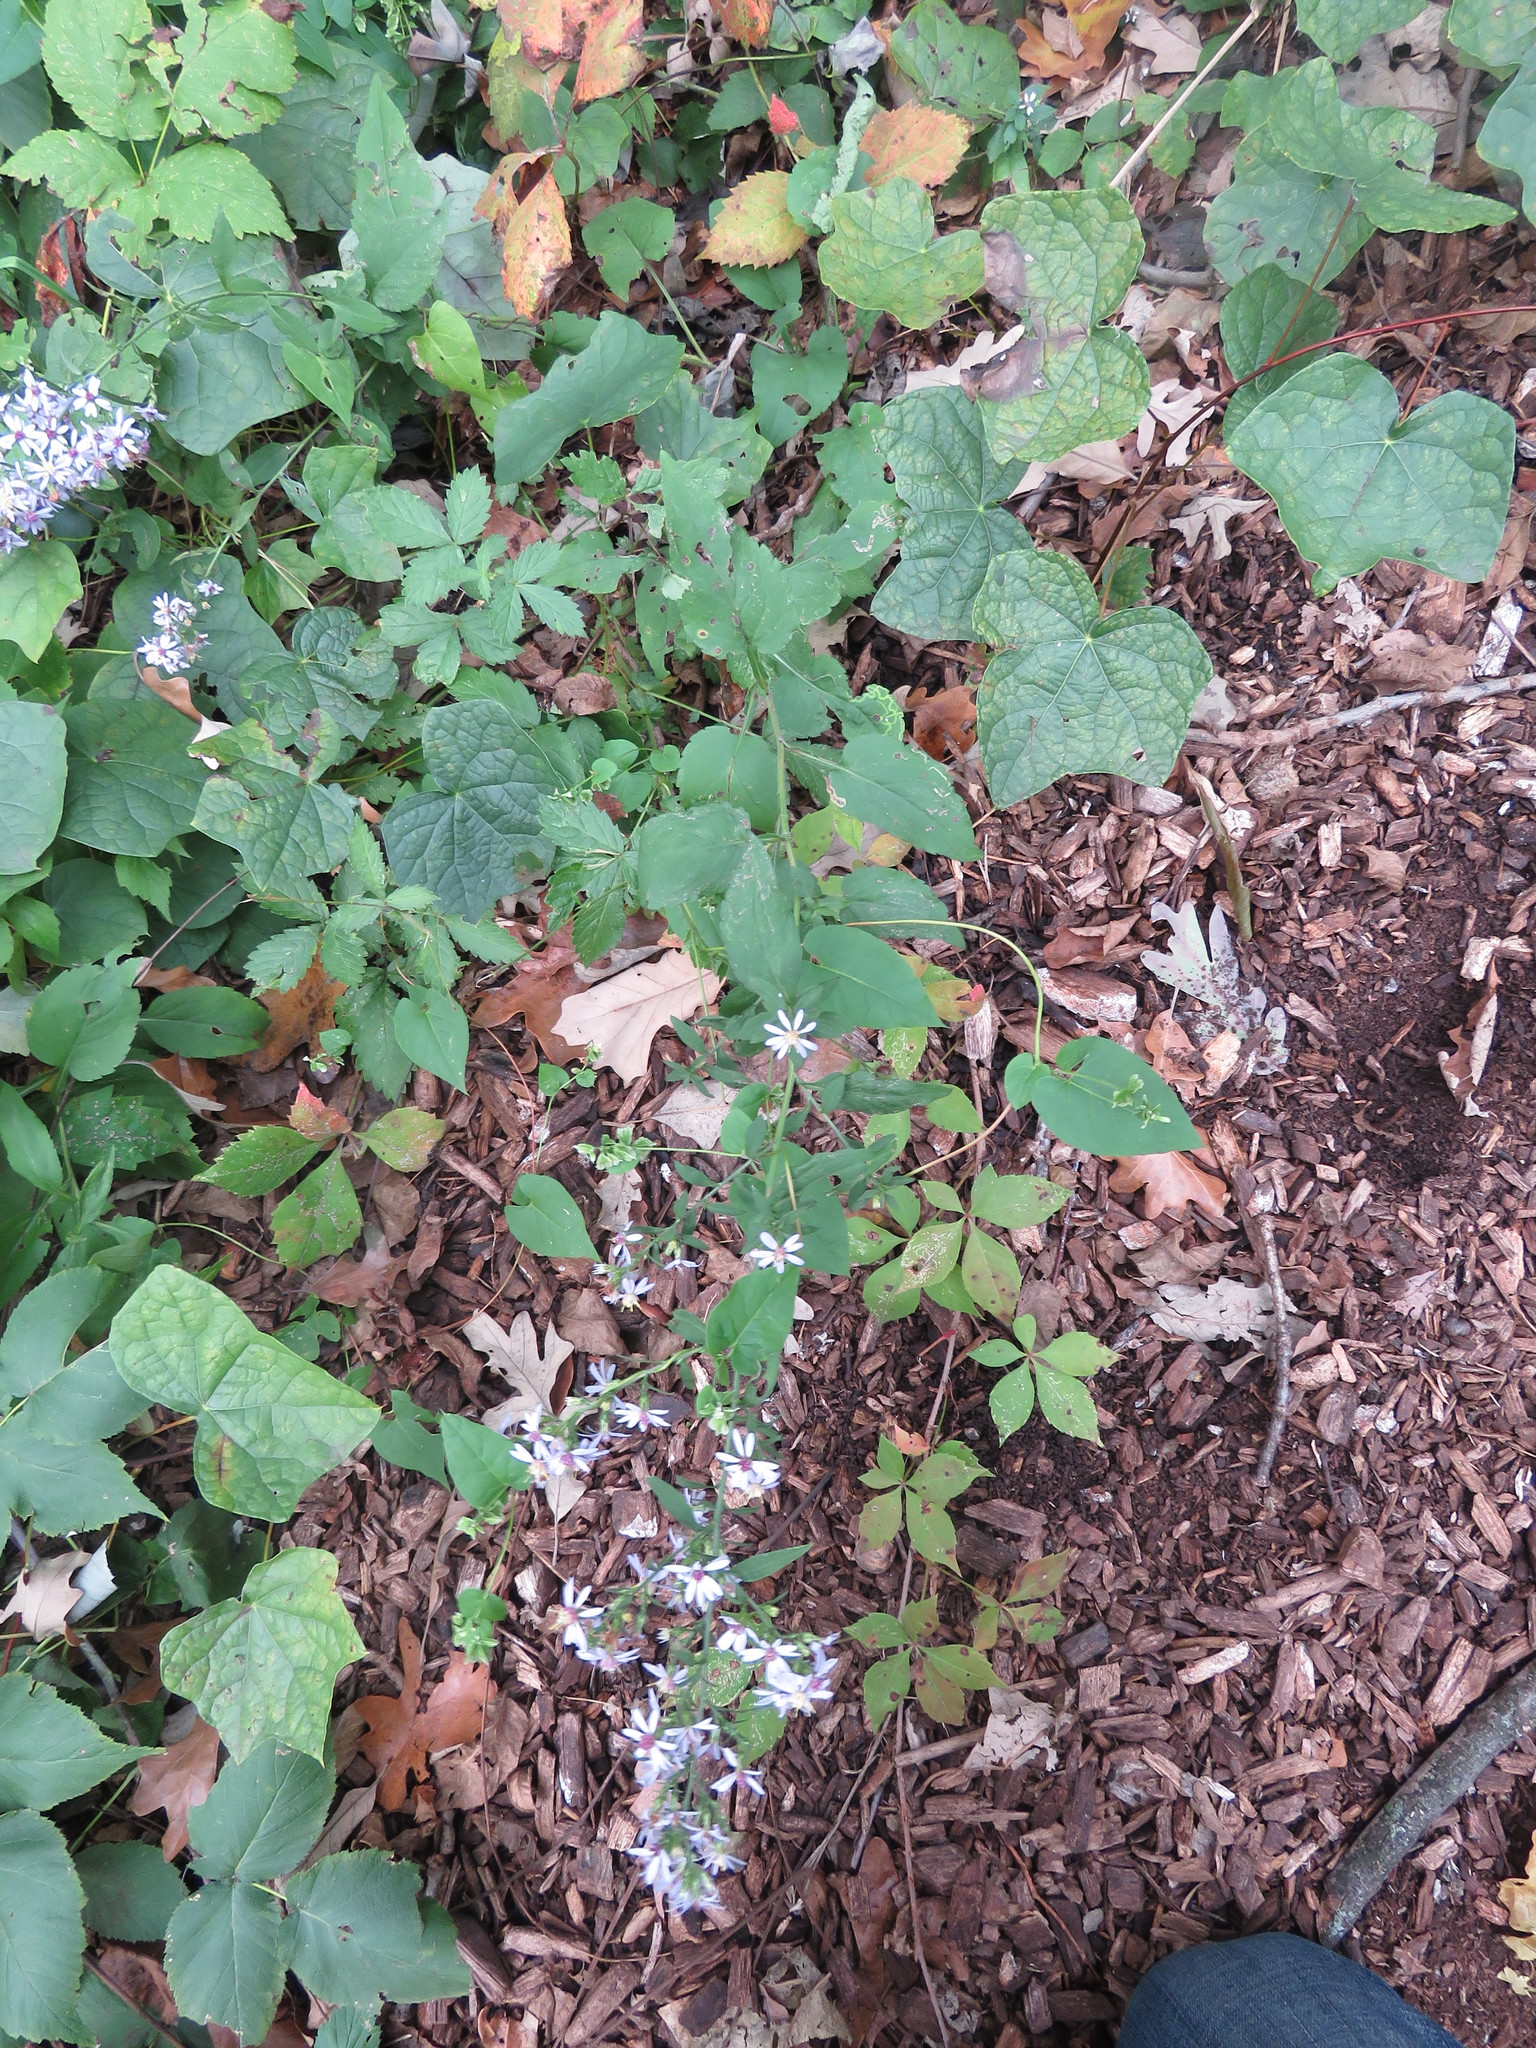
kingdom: Plantae
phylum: Tracheophyta
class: Magnoliopsida
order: Asterales
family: Asteraceae
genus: Symphyotrichum
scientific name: Symphyotrichum drummondii
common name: Drummond's aster
